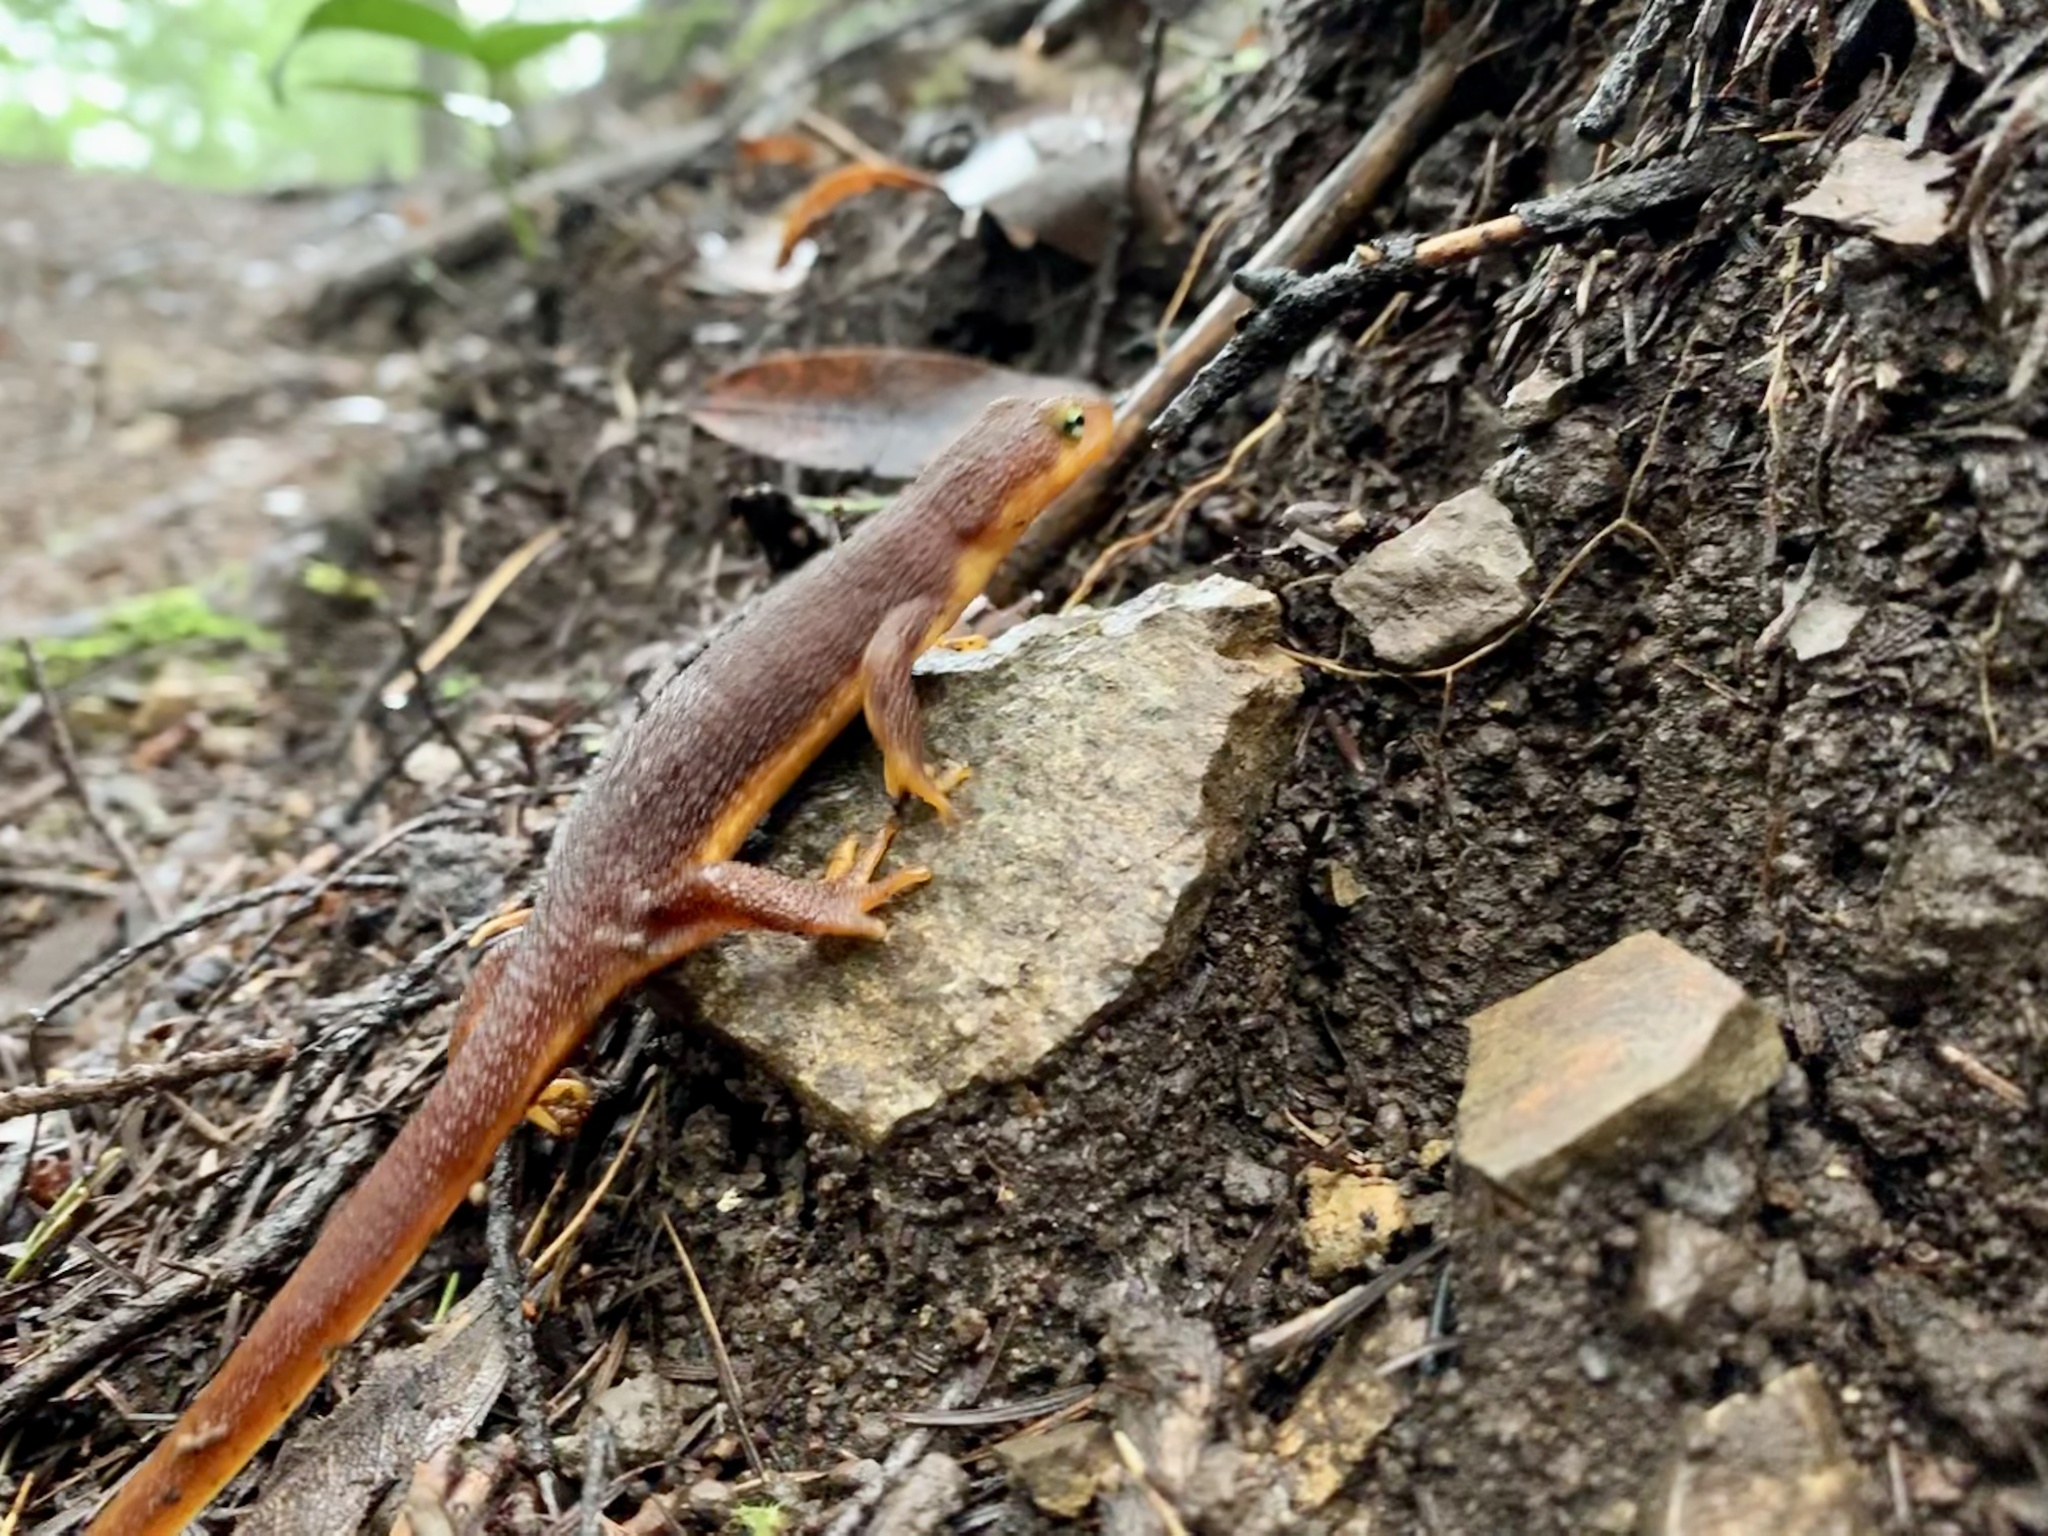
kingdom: Animalia
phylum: Chordata
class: Amphibia
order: Caudata
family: Salamandridae
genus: Taricha
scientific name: Taricha torosa
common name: California newt
